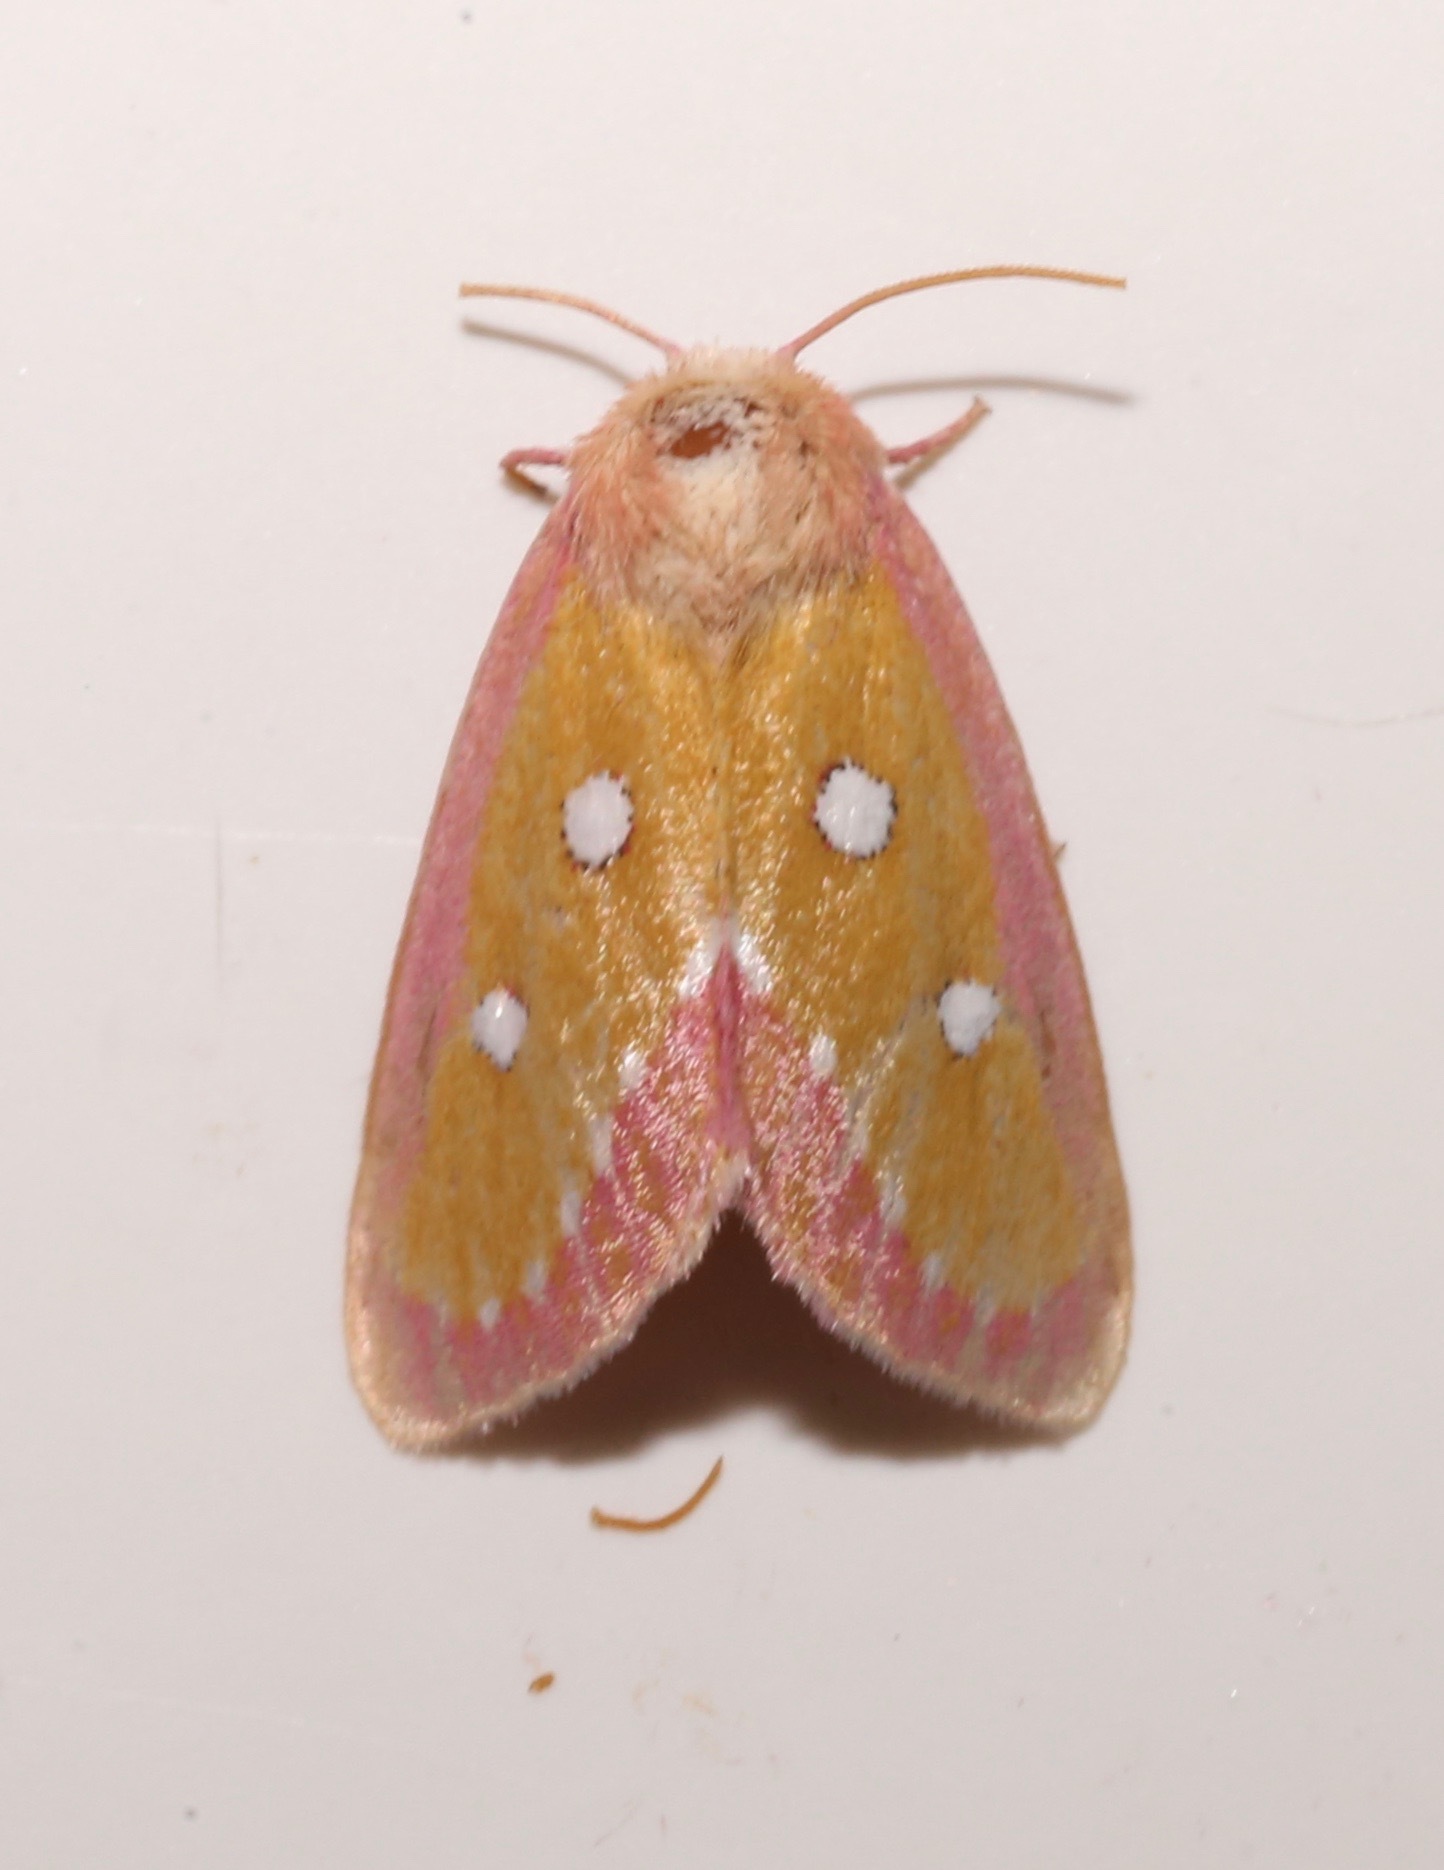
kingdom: Animalia
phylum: Arthropoda
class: Insecta
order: Lepidoptera
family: Noctuidae
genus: Derrima
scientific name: Derrima stellata
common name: Pink star moth
